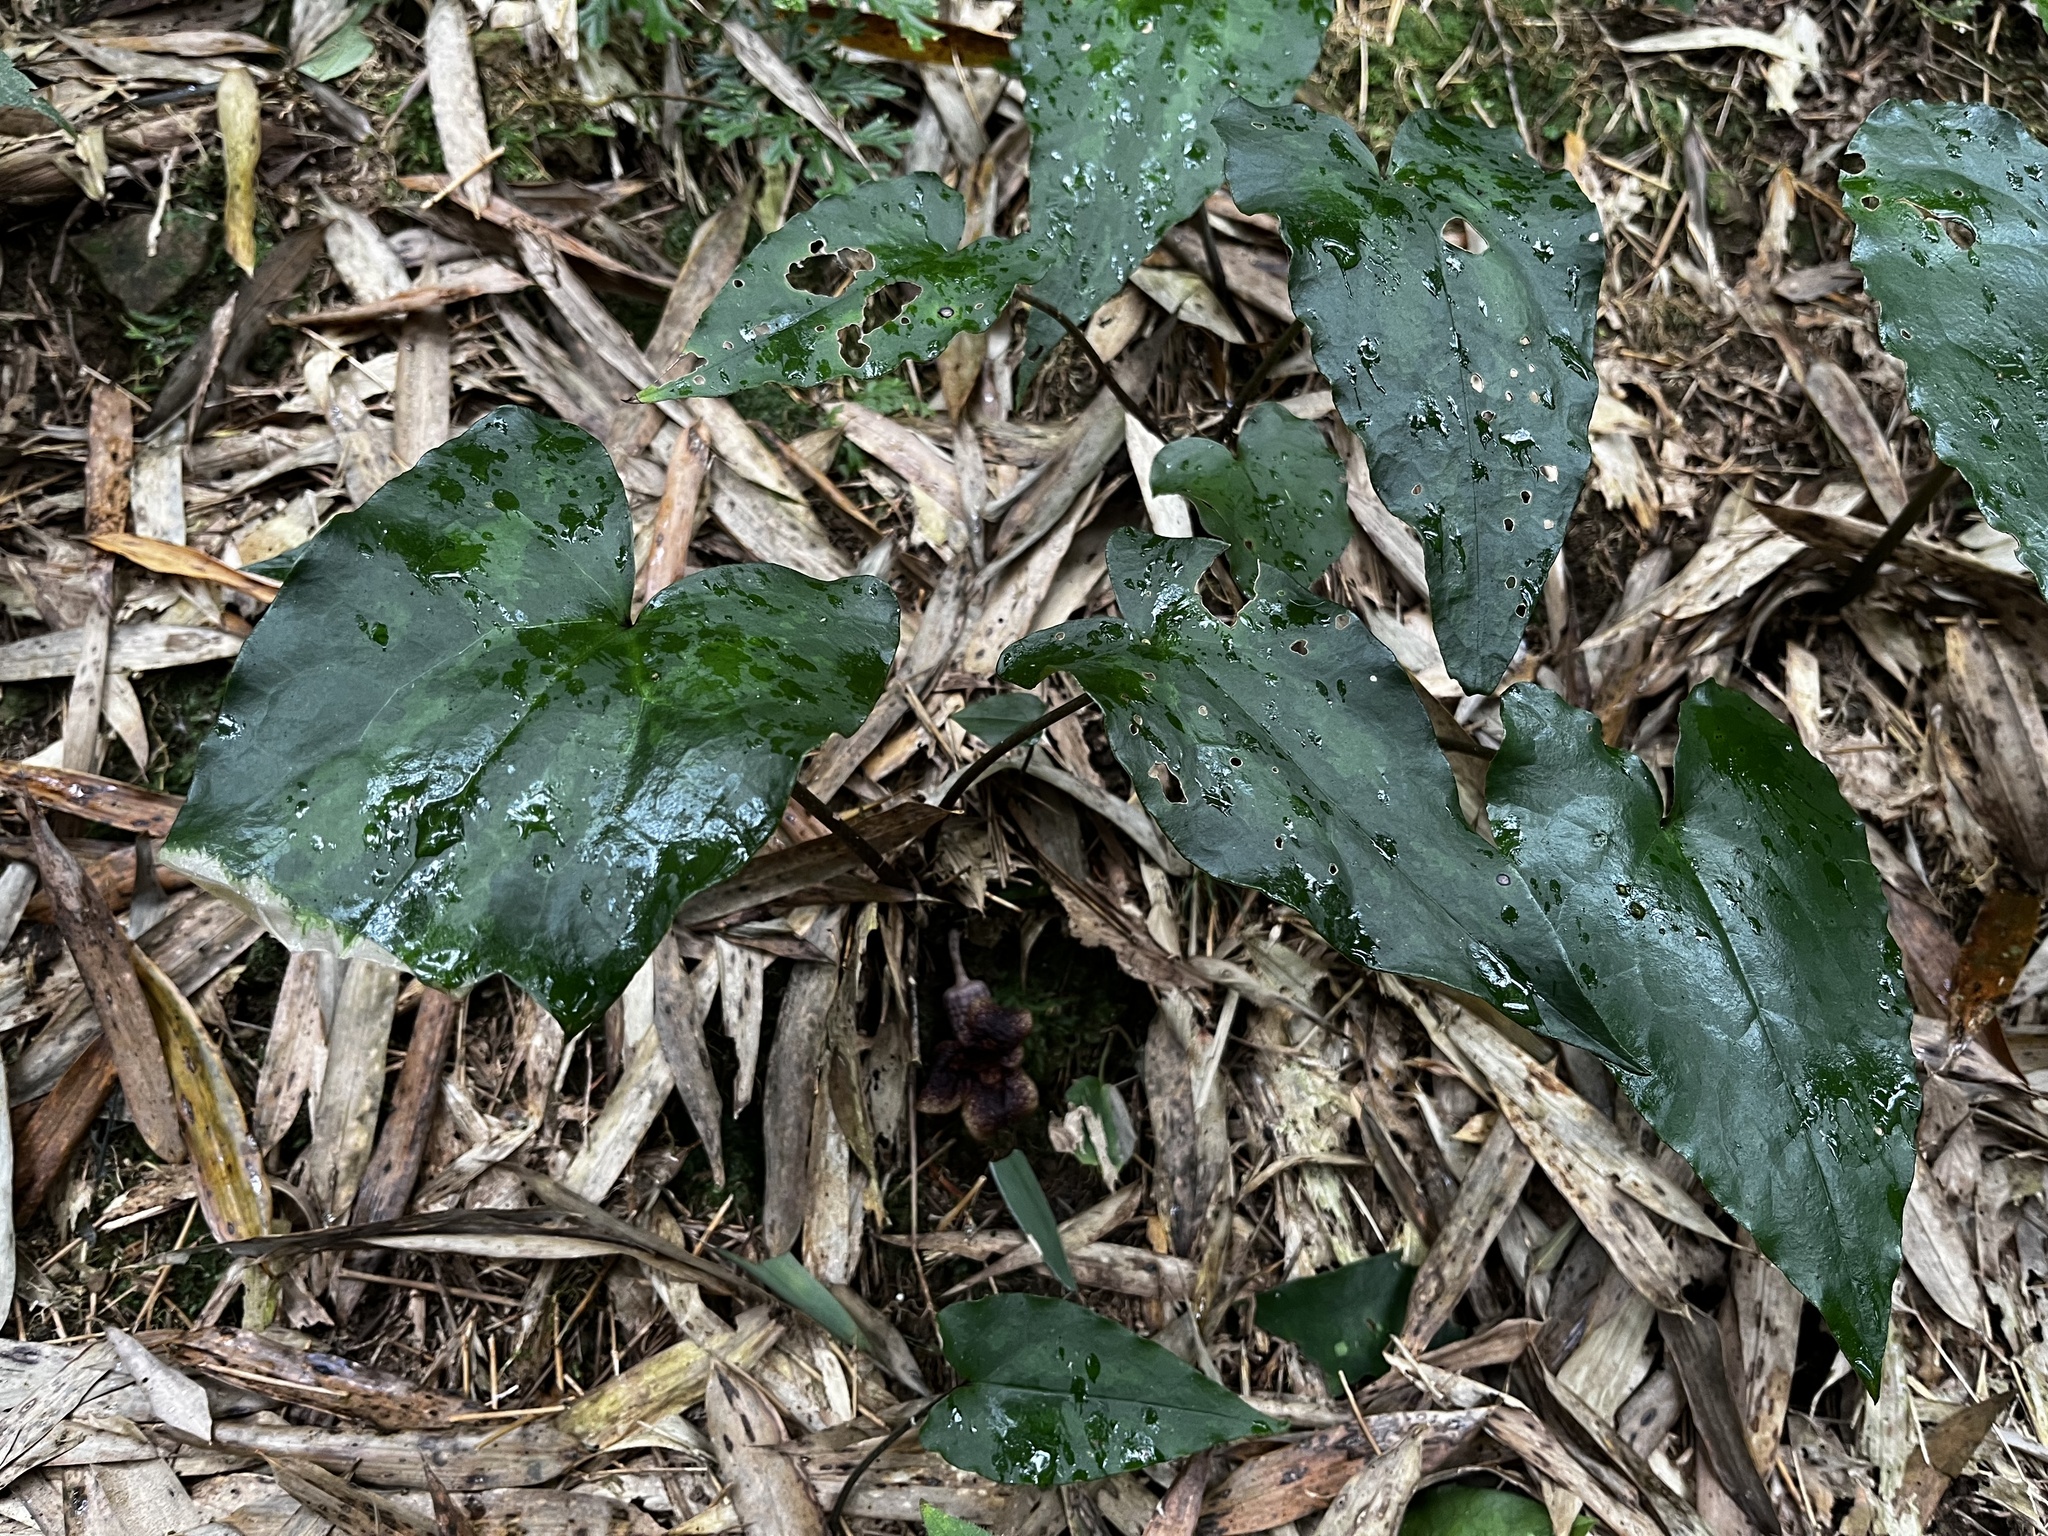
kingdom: Plantae
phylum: Tracheophyta
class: Magnoliopsida
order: Piperales
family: Aristolochiaceae
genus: Asarum
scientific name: Asarum hypogynum
